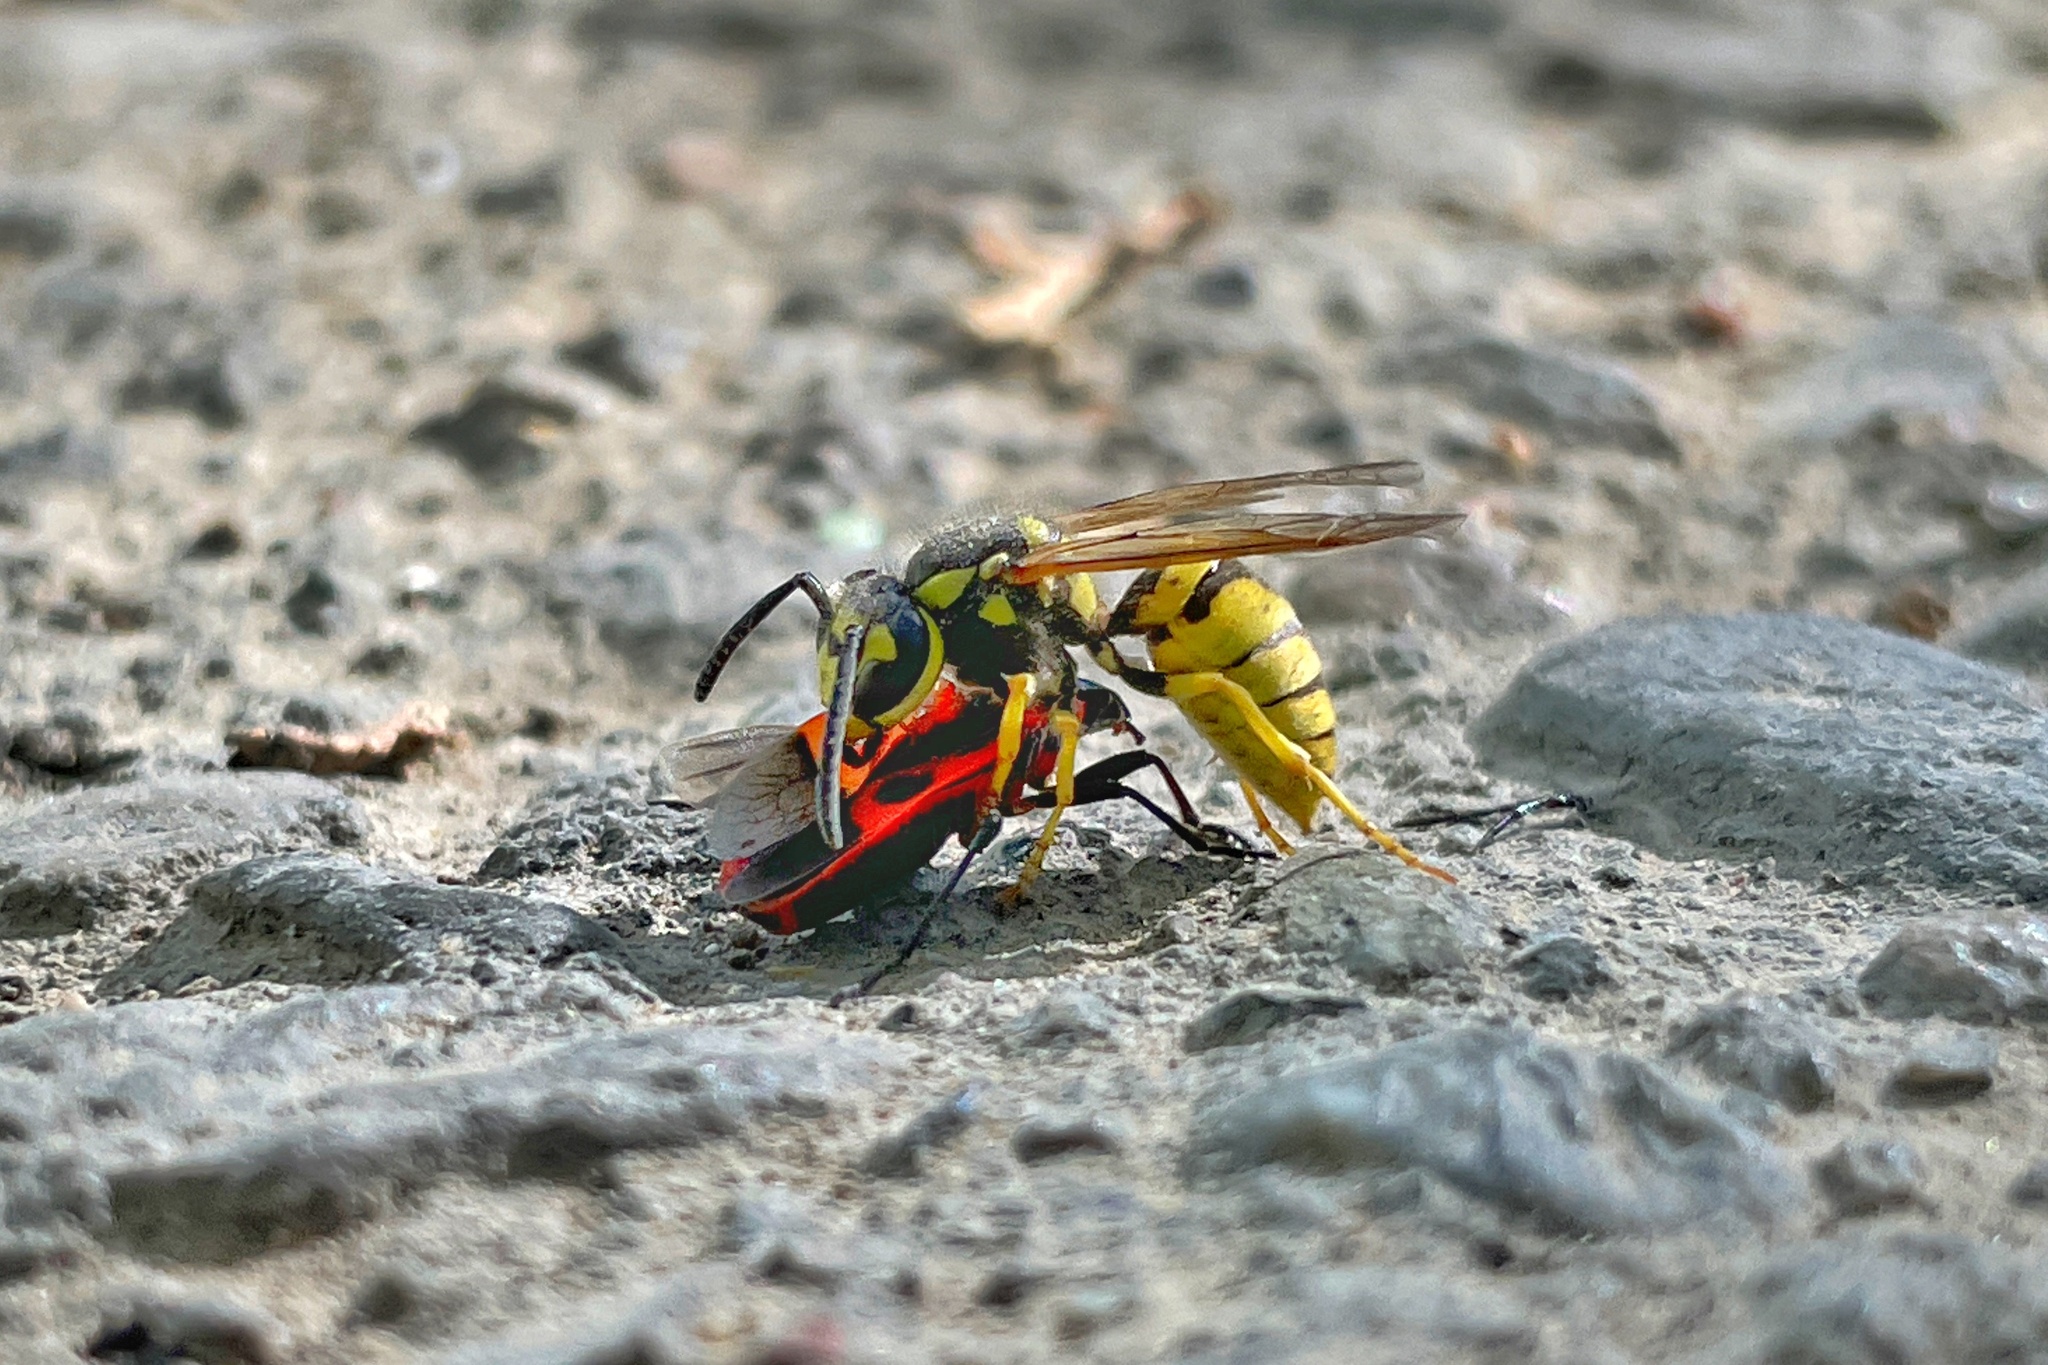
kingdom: Animalia
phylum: Arthropoda
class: Insecta
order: Hymenoptera
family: Vespidae
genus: Vespula
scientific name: Vespula germanica
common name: German wasp
